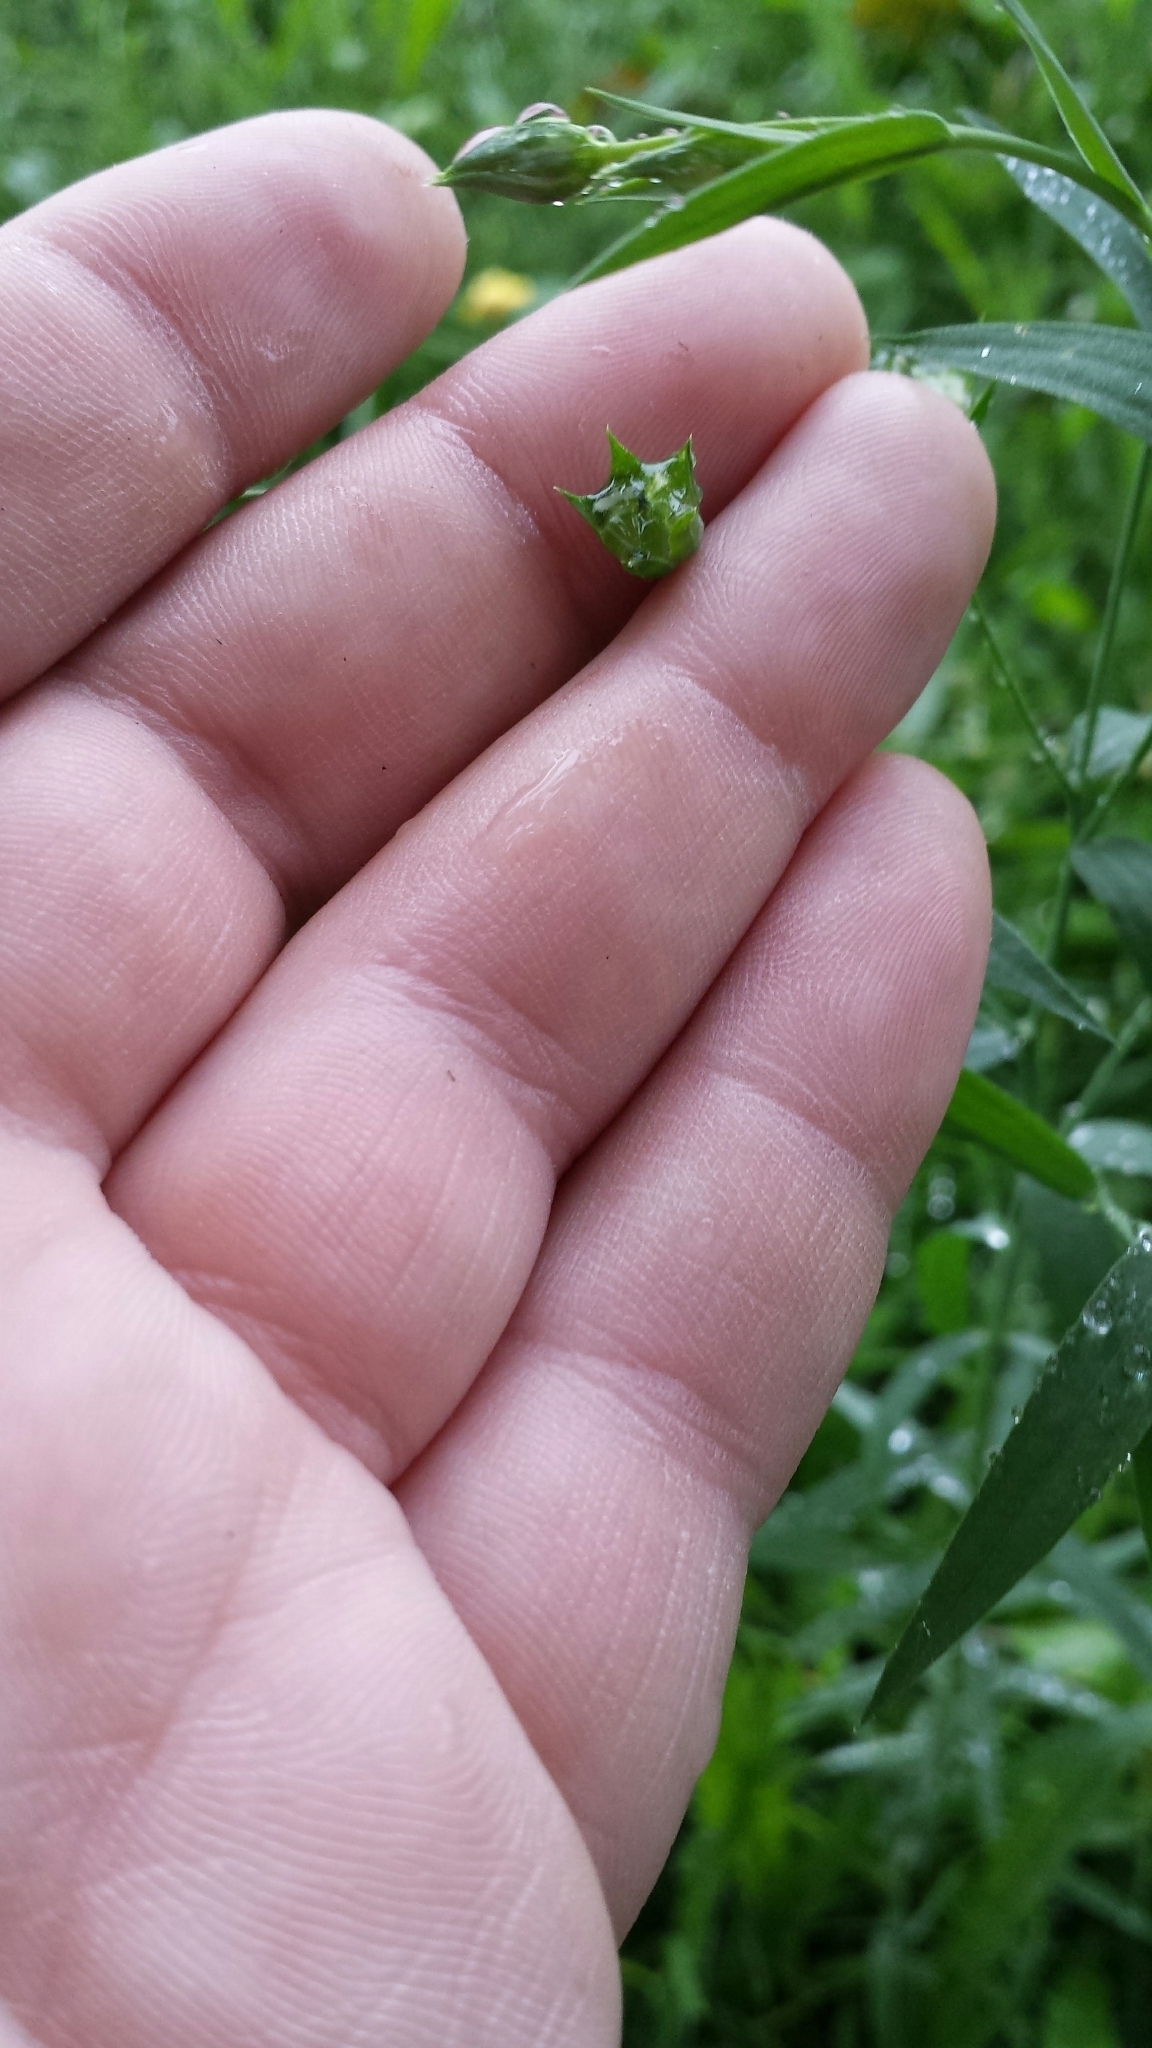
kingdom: Plantae
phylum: Tracheophyta
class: Magnoliopsida
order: Malpighiales
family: Linaceae
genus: Linum
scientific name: Linum usitatissimum
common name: Flax
